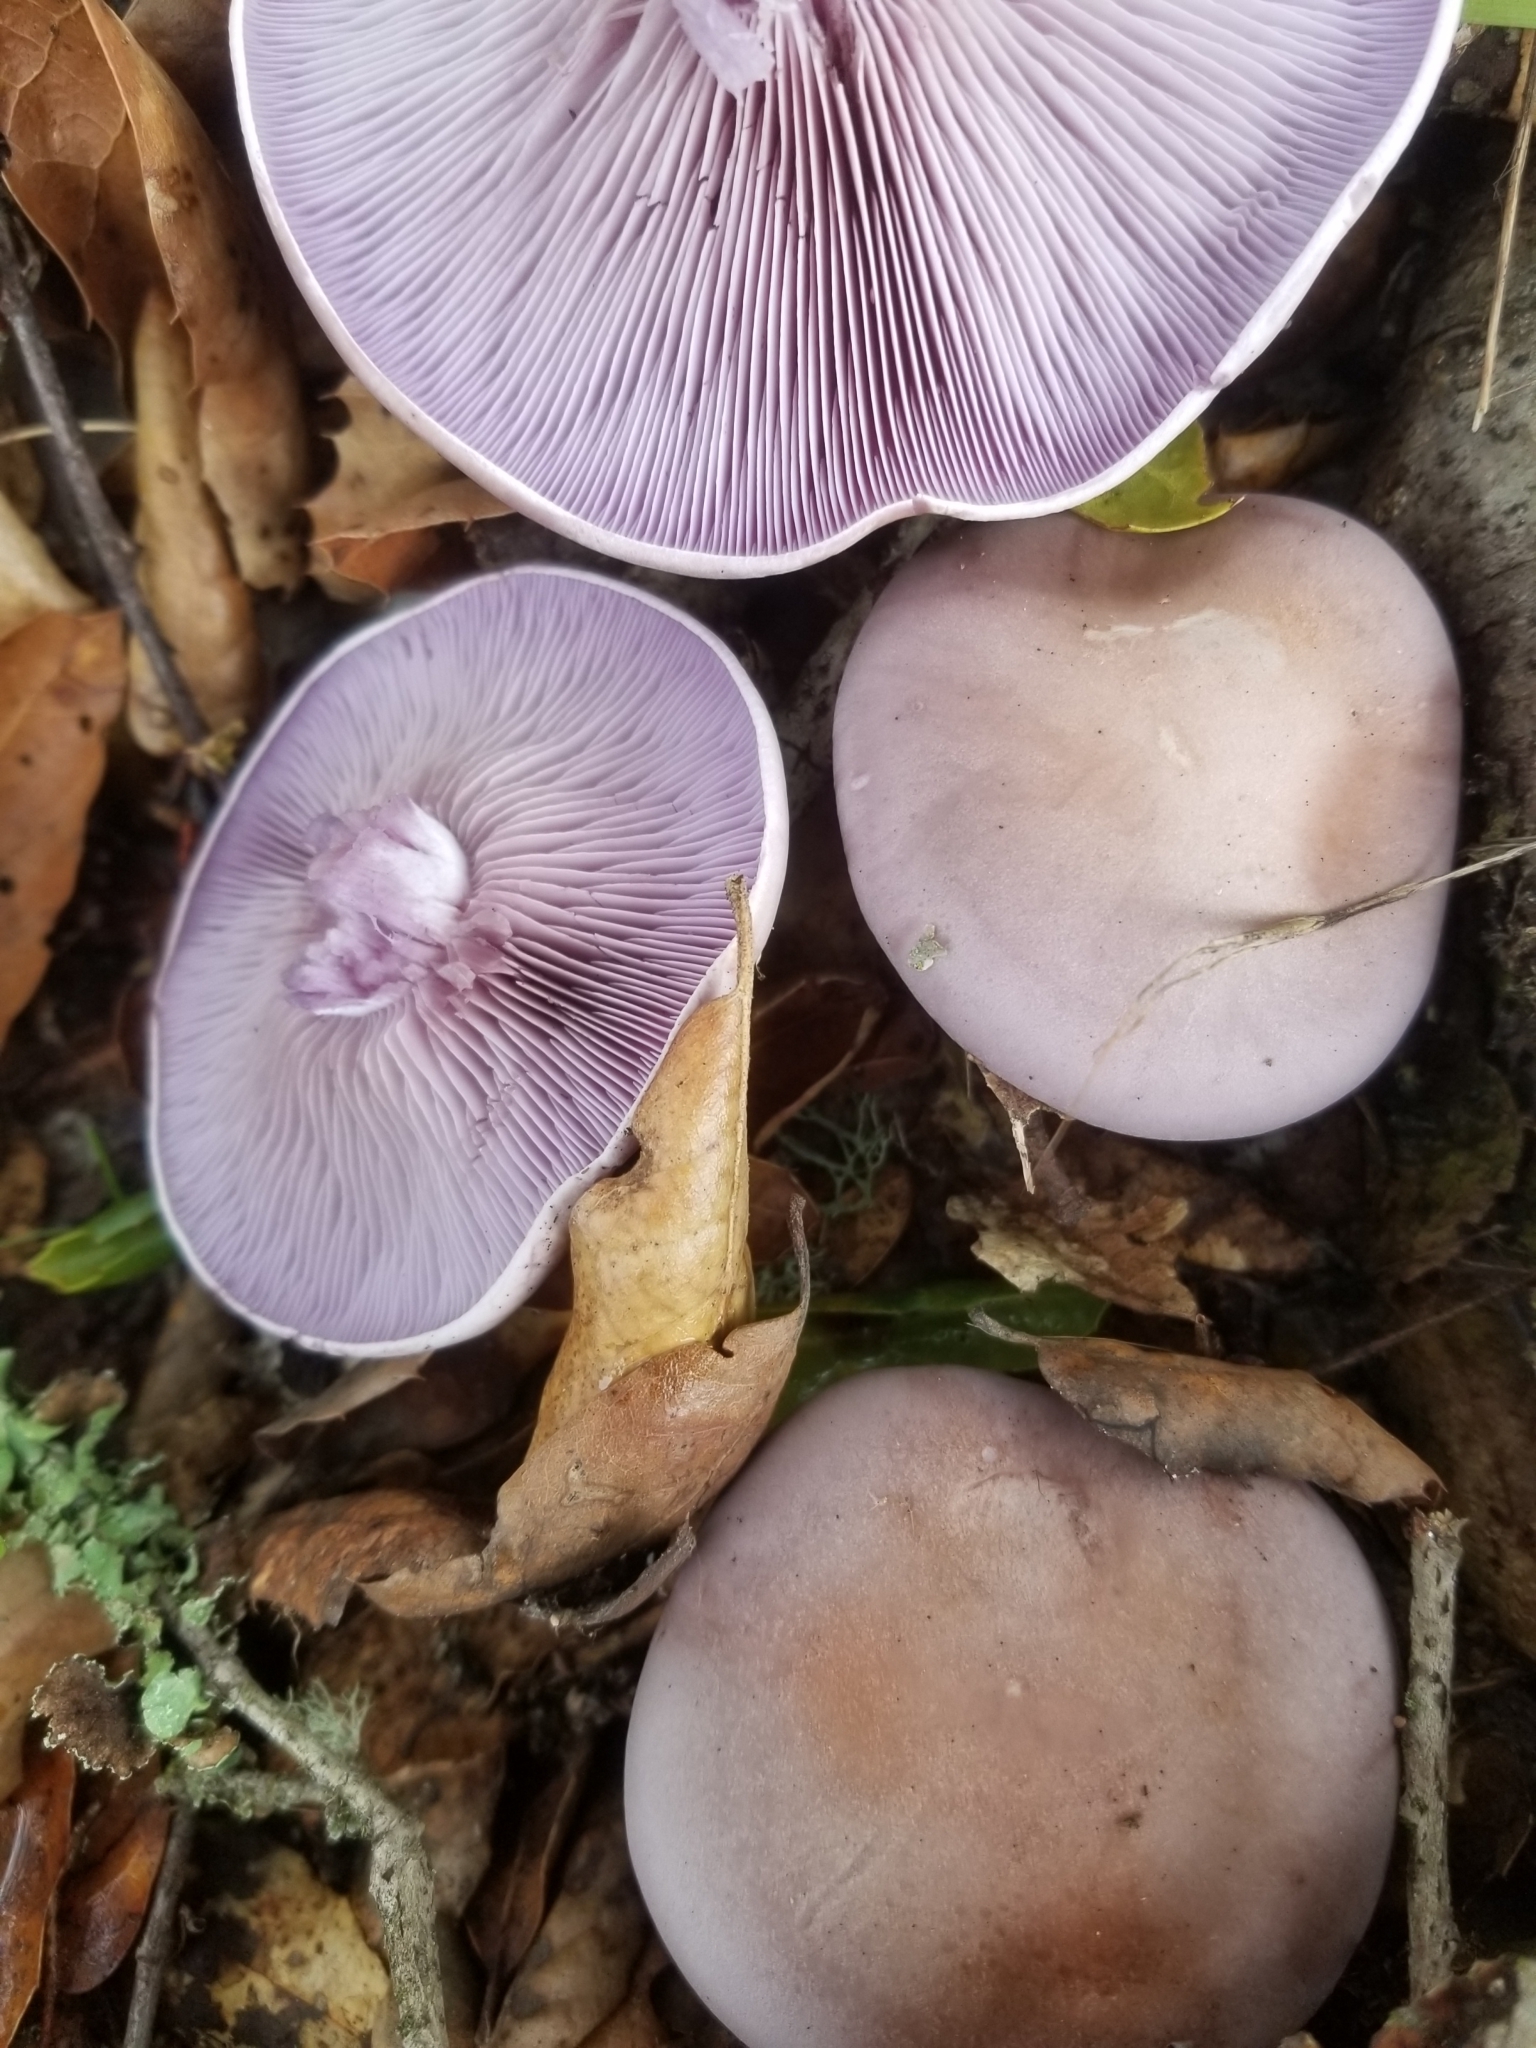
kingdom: Fungi
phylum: Basidiomycota
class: Agaricomycetes
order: Agaricales
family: Tricholomataceae
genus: Collybia
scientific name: Collybia
